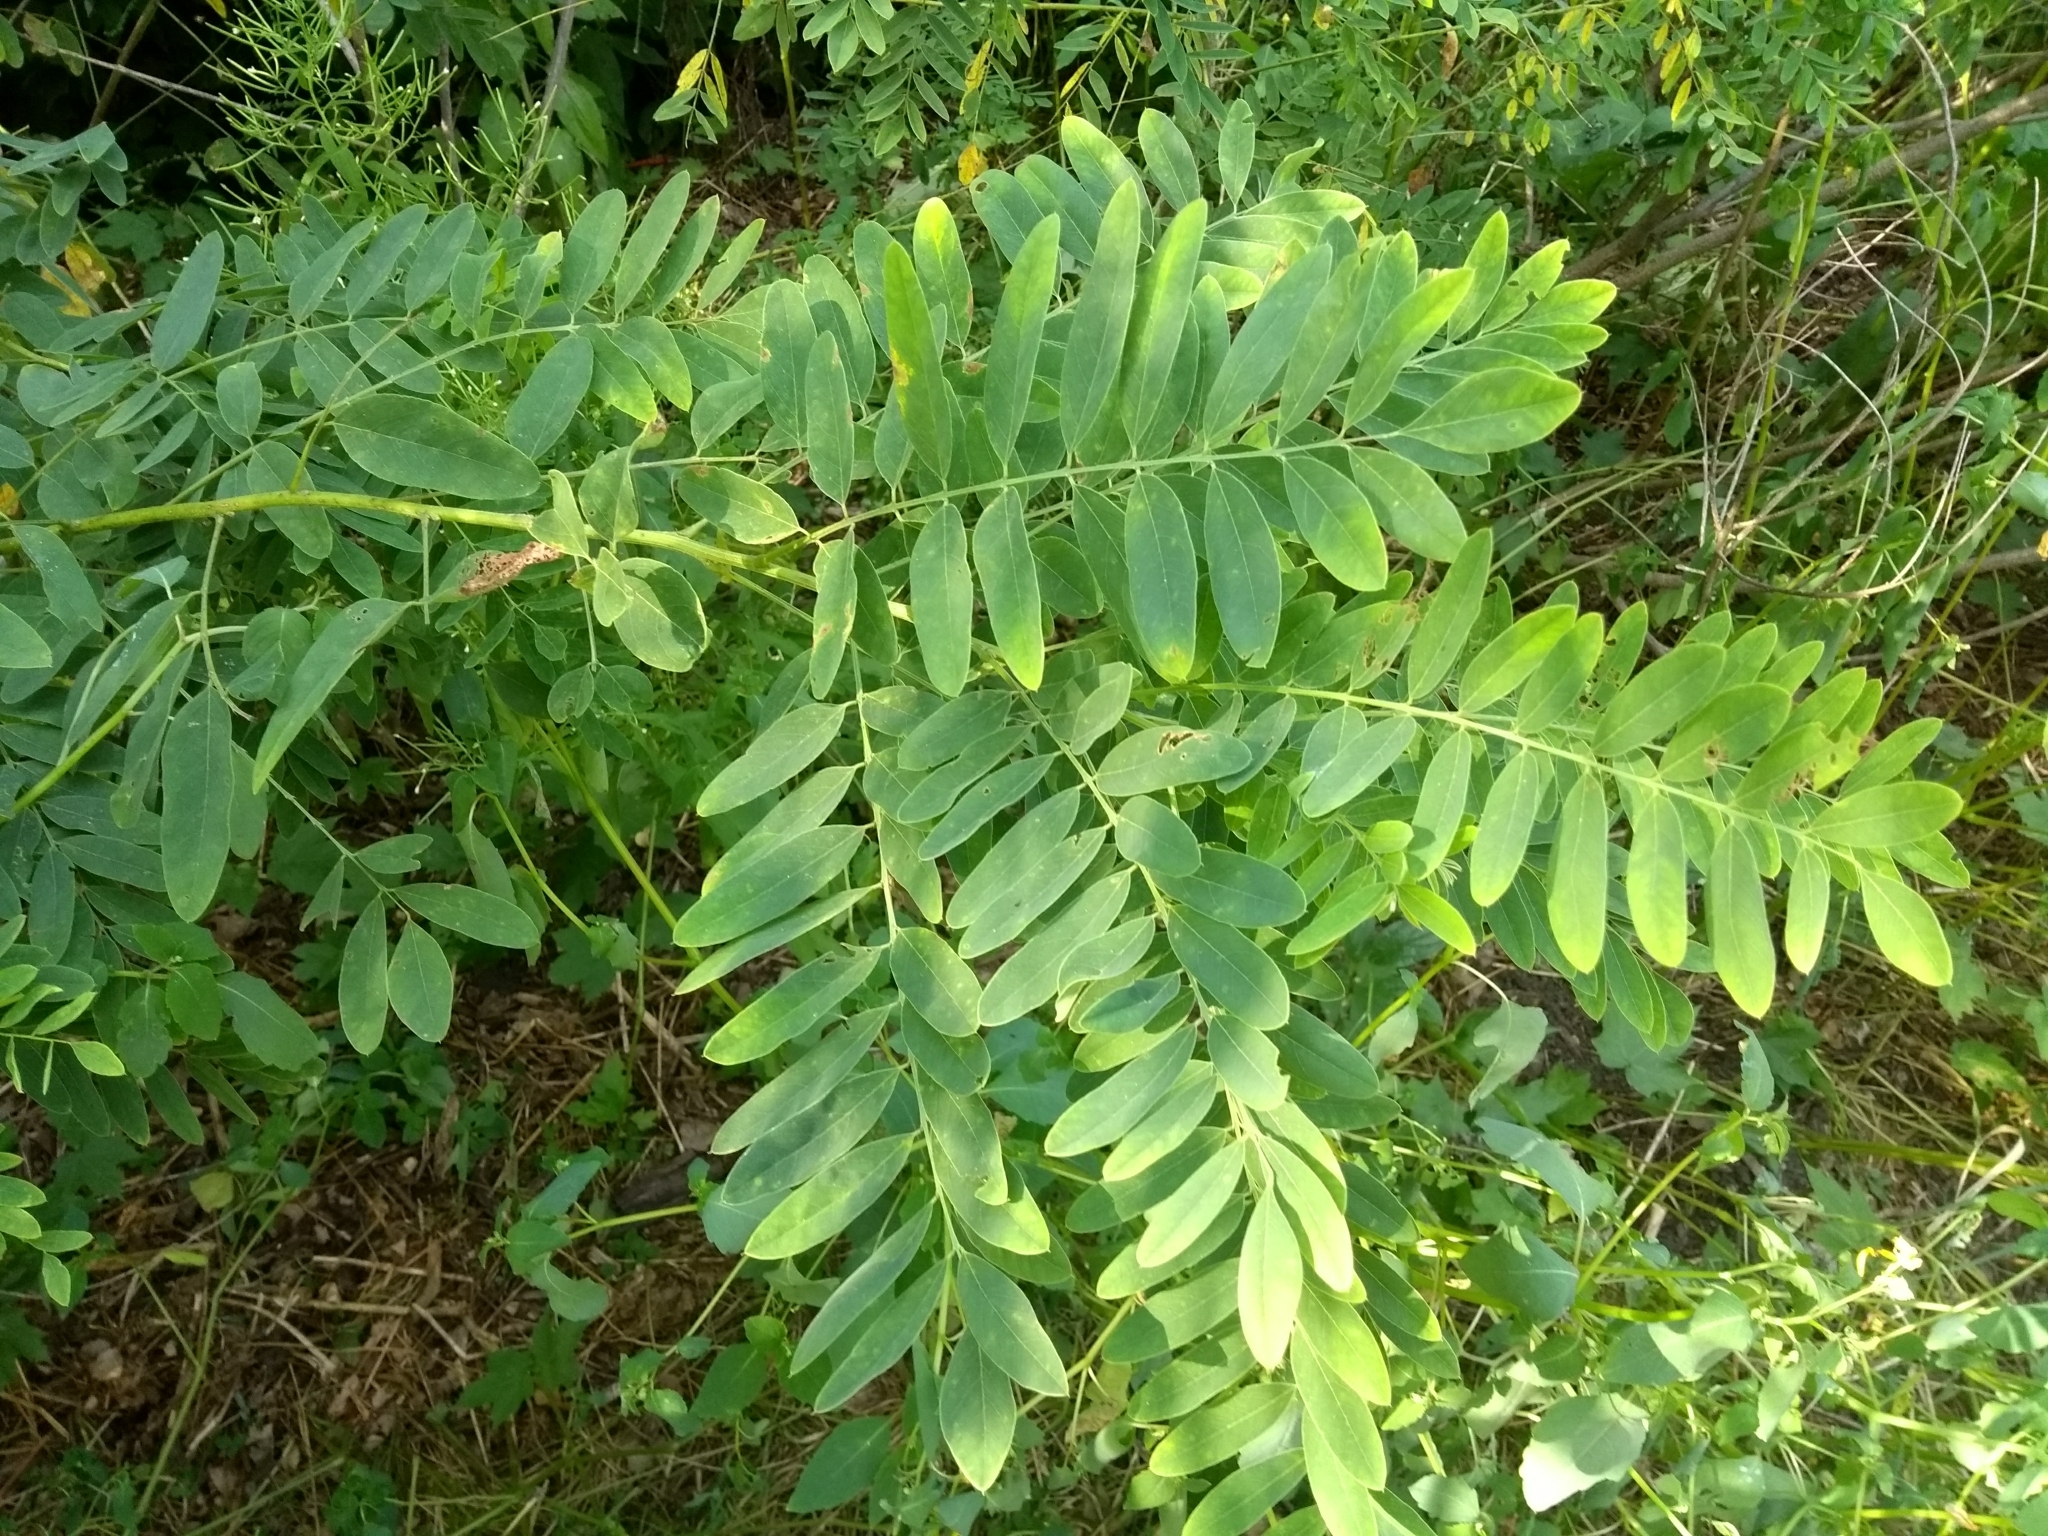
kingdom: Plantae
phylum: Tracheophyta
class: Magnoliopsida
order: Fabales
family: Fabaceae
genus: Amorpha
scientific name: Amorpha fruticosa
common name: False indigo
